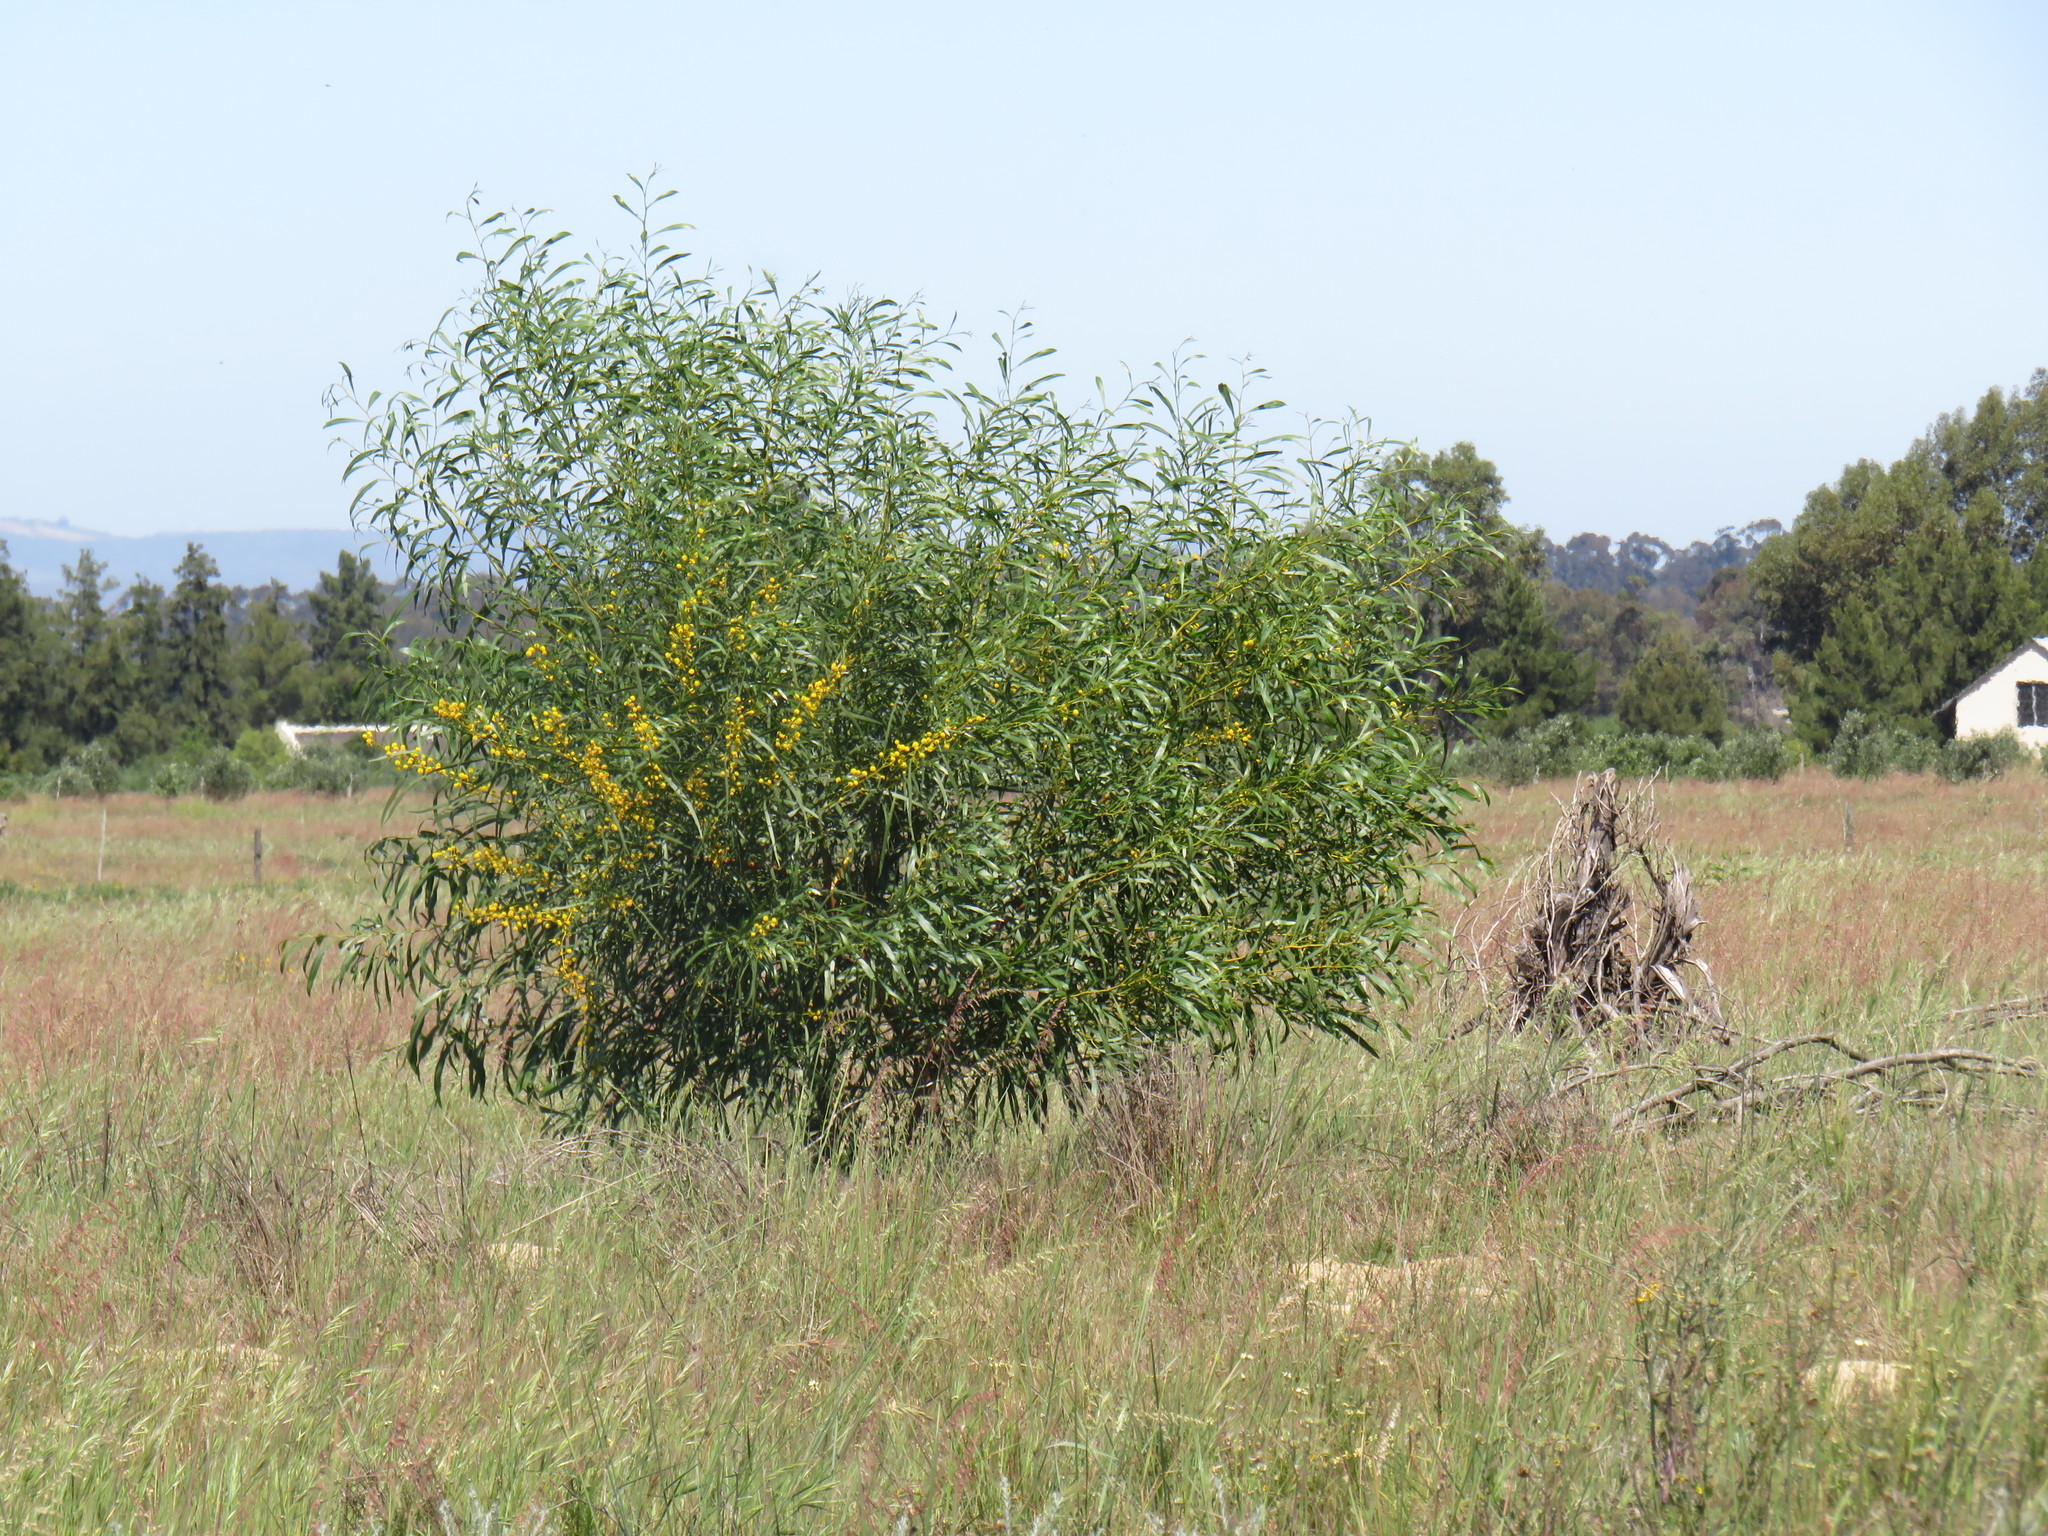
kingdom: Plantae
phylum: Tracheophyta
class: Magnoliopsida
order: Fabales
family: Fabaceae
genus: Acacia
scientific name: Acacia saligna
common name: Orange wattle
